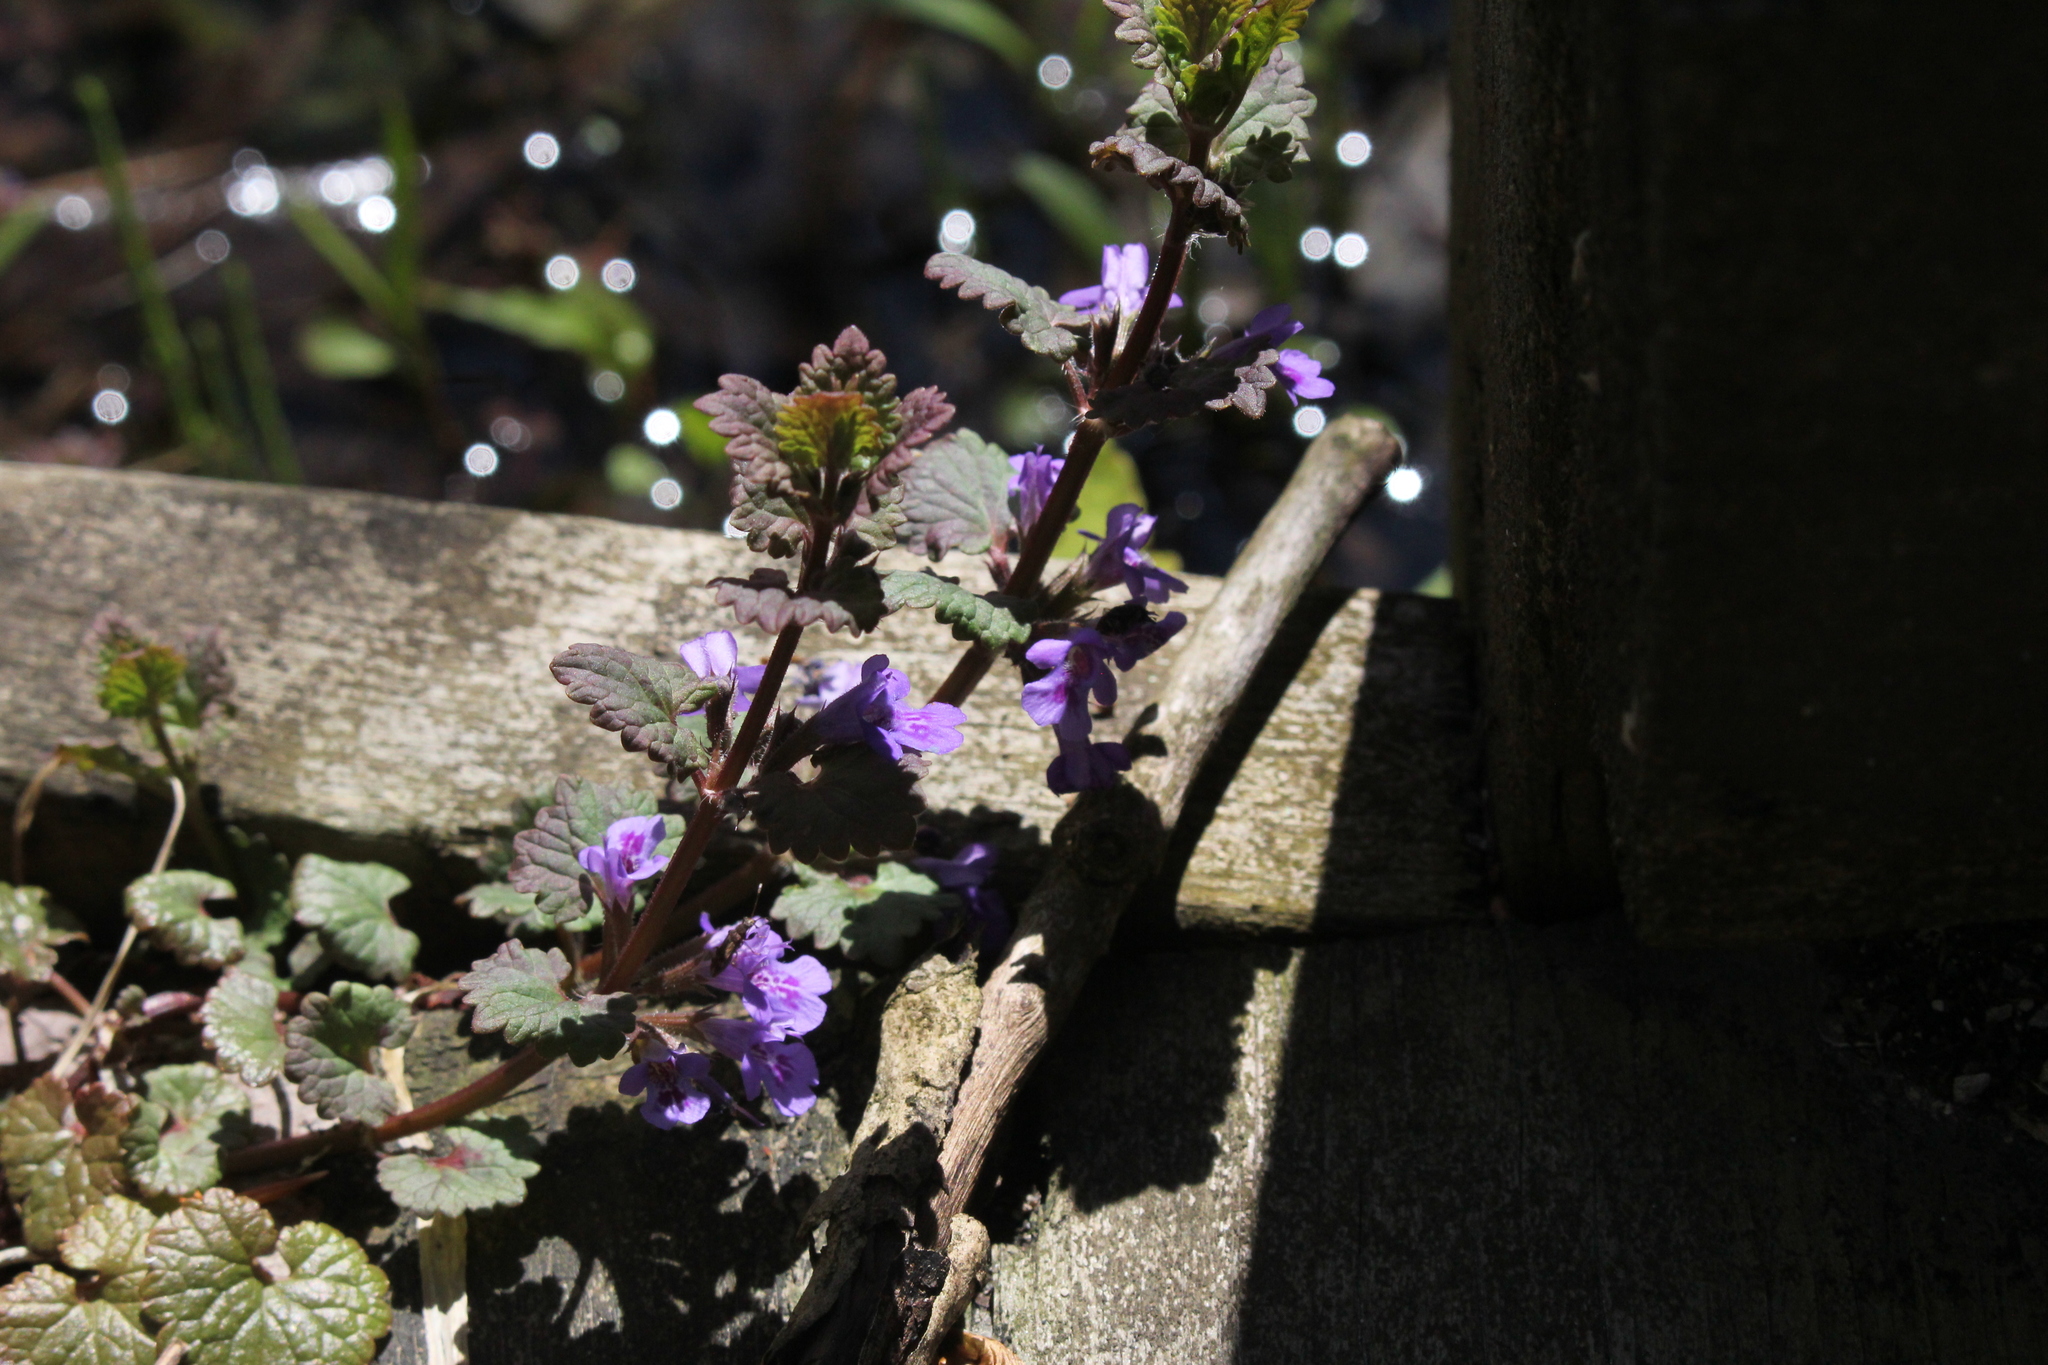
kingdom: Plantae
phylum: Tracheophyta
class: Magnoliopsida
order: Lamiales
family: Lamiaceae
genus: Glechoma
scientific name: Glechoma hederacea
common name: Ground ivy
